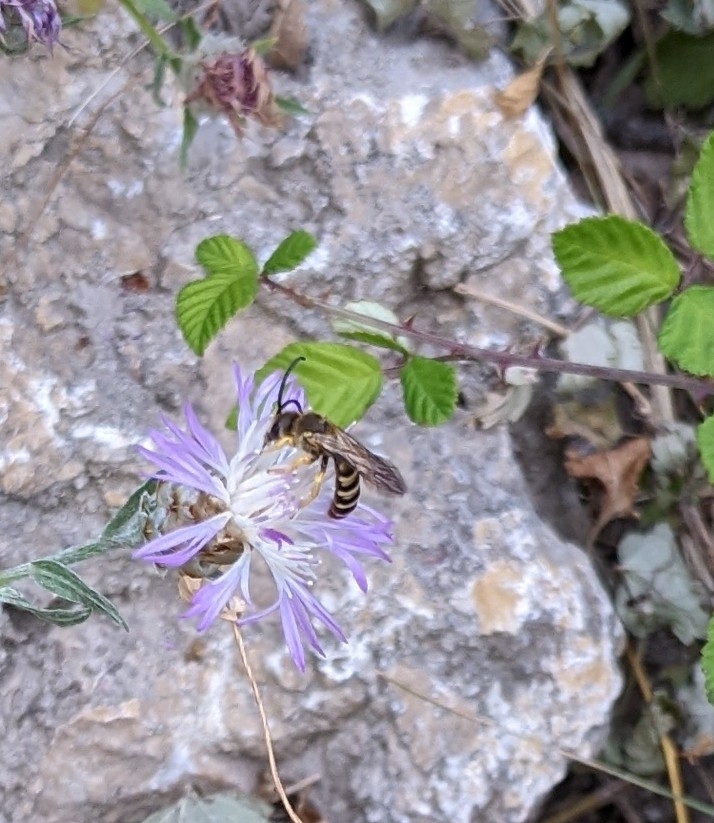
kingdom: Animalia
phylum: Arthropoda
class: Insecta
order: Hymenoptera
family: Halictidae
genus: Halictus
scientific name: Halictus scabiosae
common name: Great banded furrow bee
